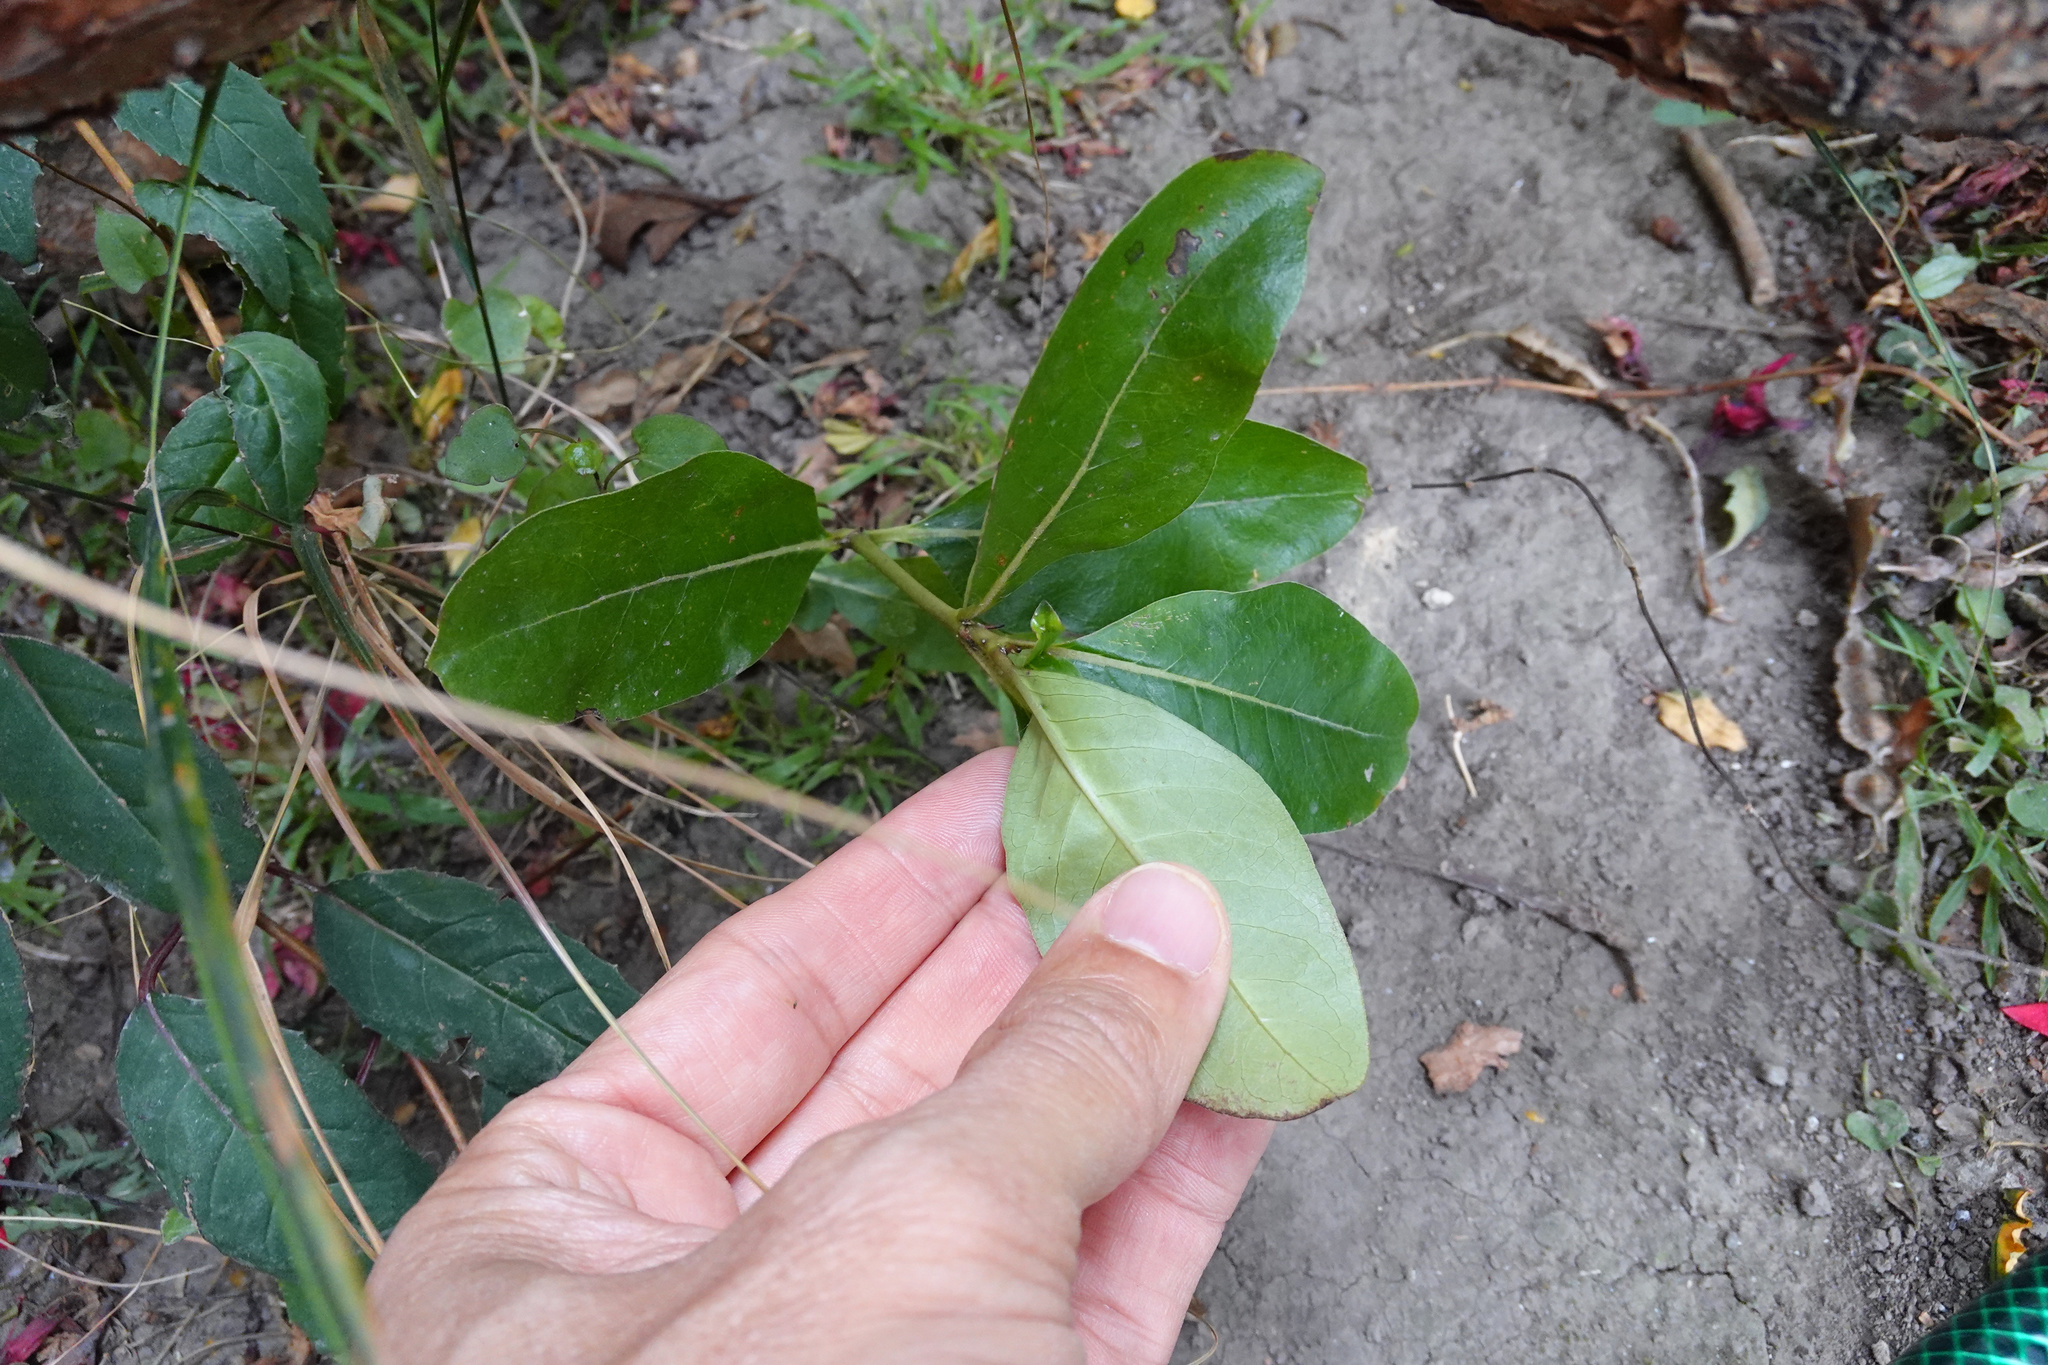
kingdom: Plantae
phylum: Tracheophyta
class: Magnoliopsida
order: Gentianales
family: Rubiaceae
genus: Coprosma
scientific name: Coprosma robusta
